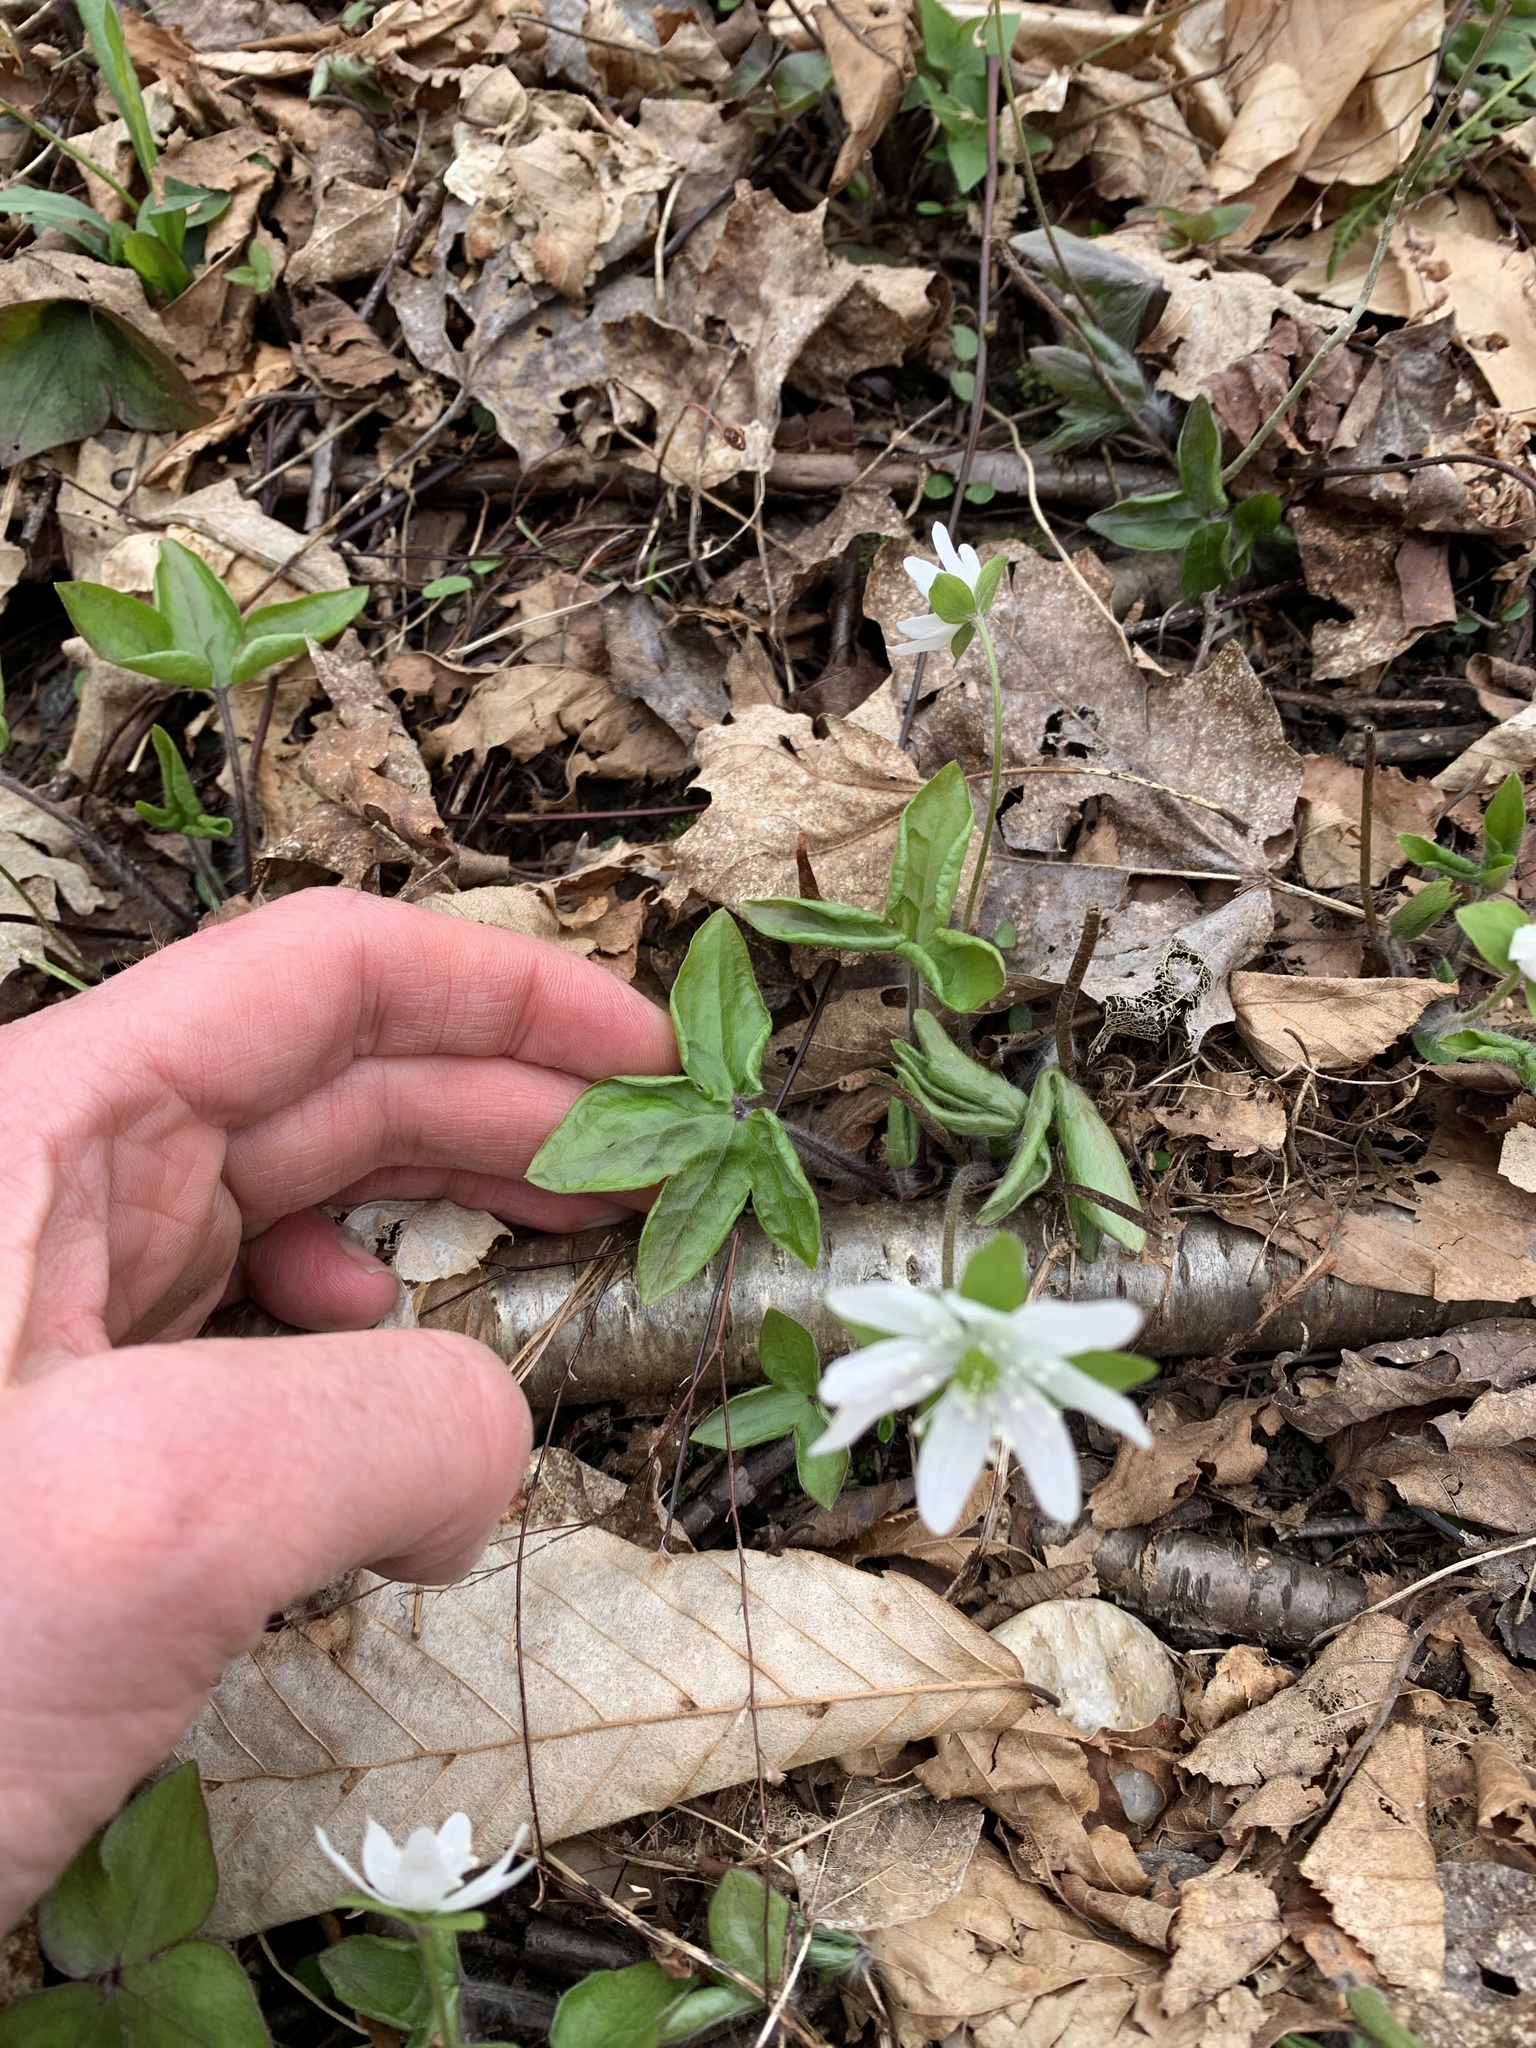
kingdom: Plantae
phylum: Tracheophyta
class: Magnoliopsida
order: Ranunculales
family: Ranunculaceae
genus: Hepatica
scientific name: Hepatica acutiloba
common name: Sharp-lobed hepatica
